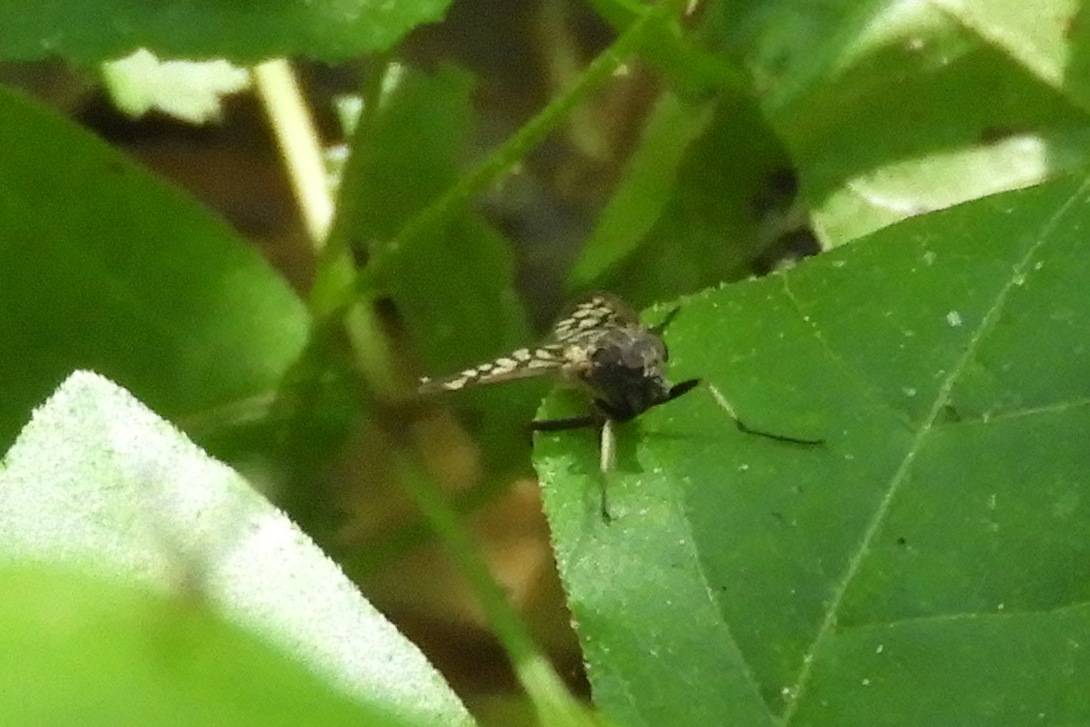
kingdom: Animalia
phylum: Arthropoda
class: Insecta
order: Diptera
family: Rhagionidae
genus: Rhagio
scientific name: Rhagio mystaceus
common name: Common snipe fly
